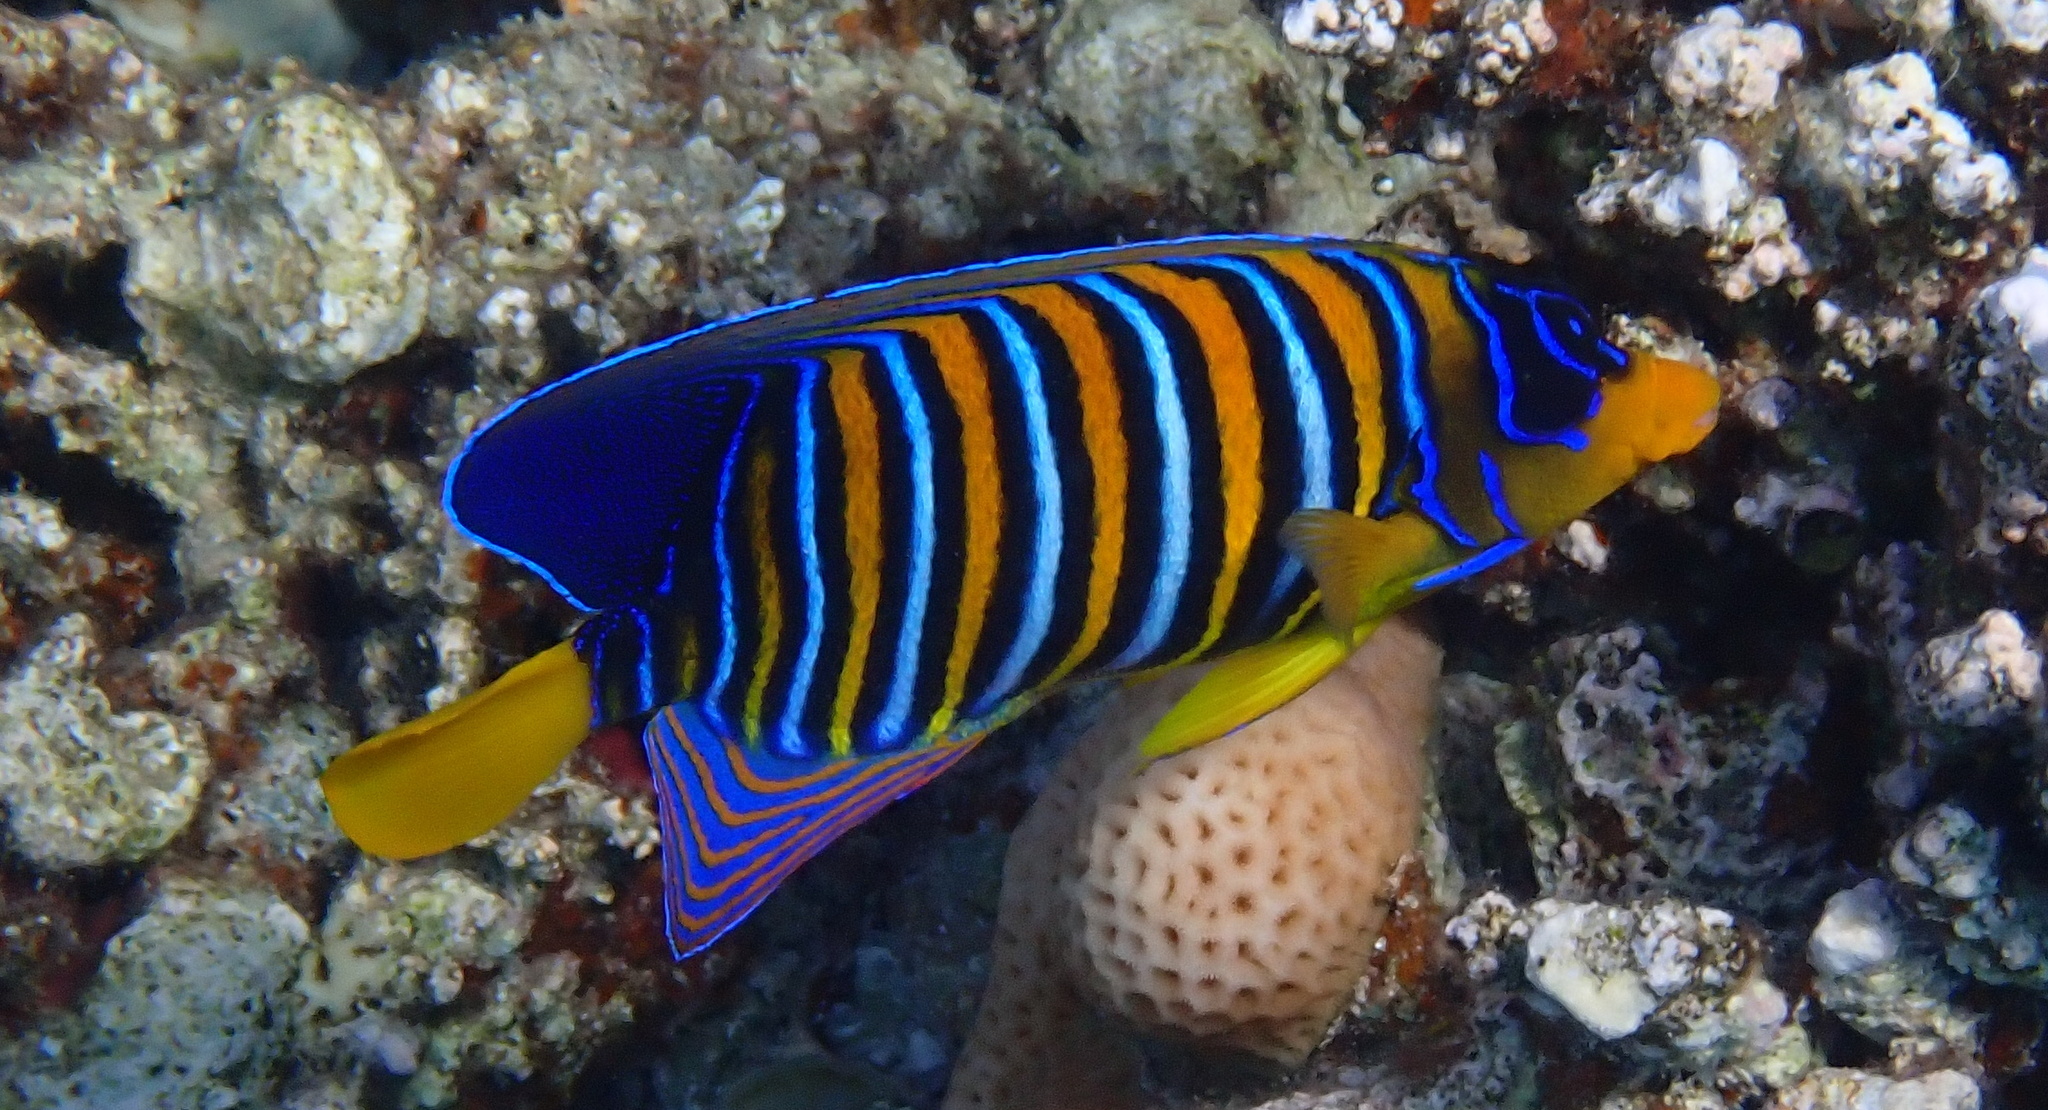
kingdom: Animalia
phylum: Chordata
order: Perciformes
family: Pomacanthidae
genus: Pygoplites
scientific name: Pygoplites diacanthus
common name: Regal angelfish
